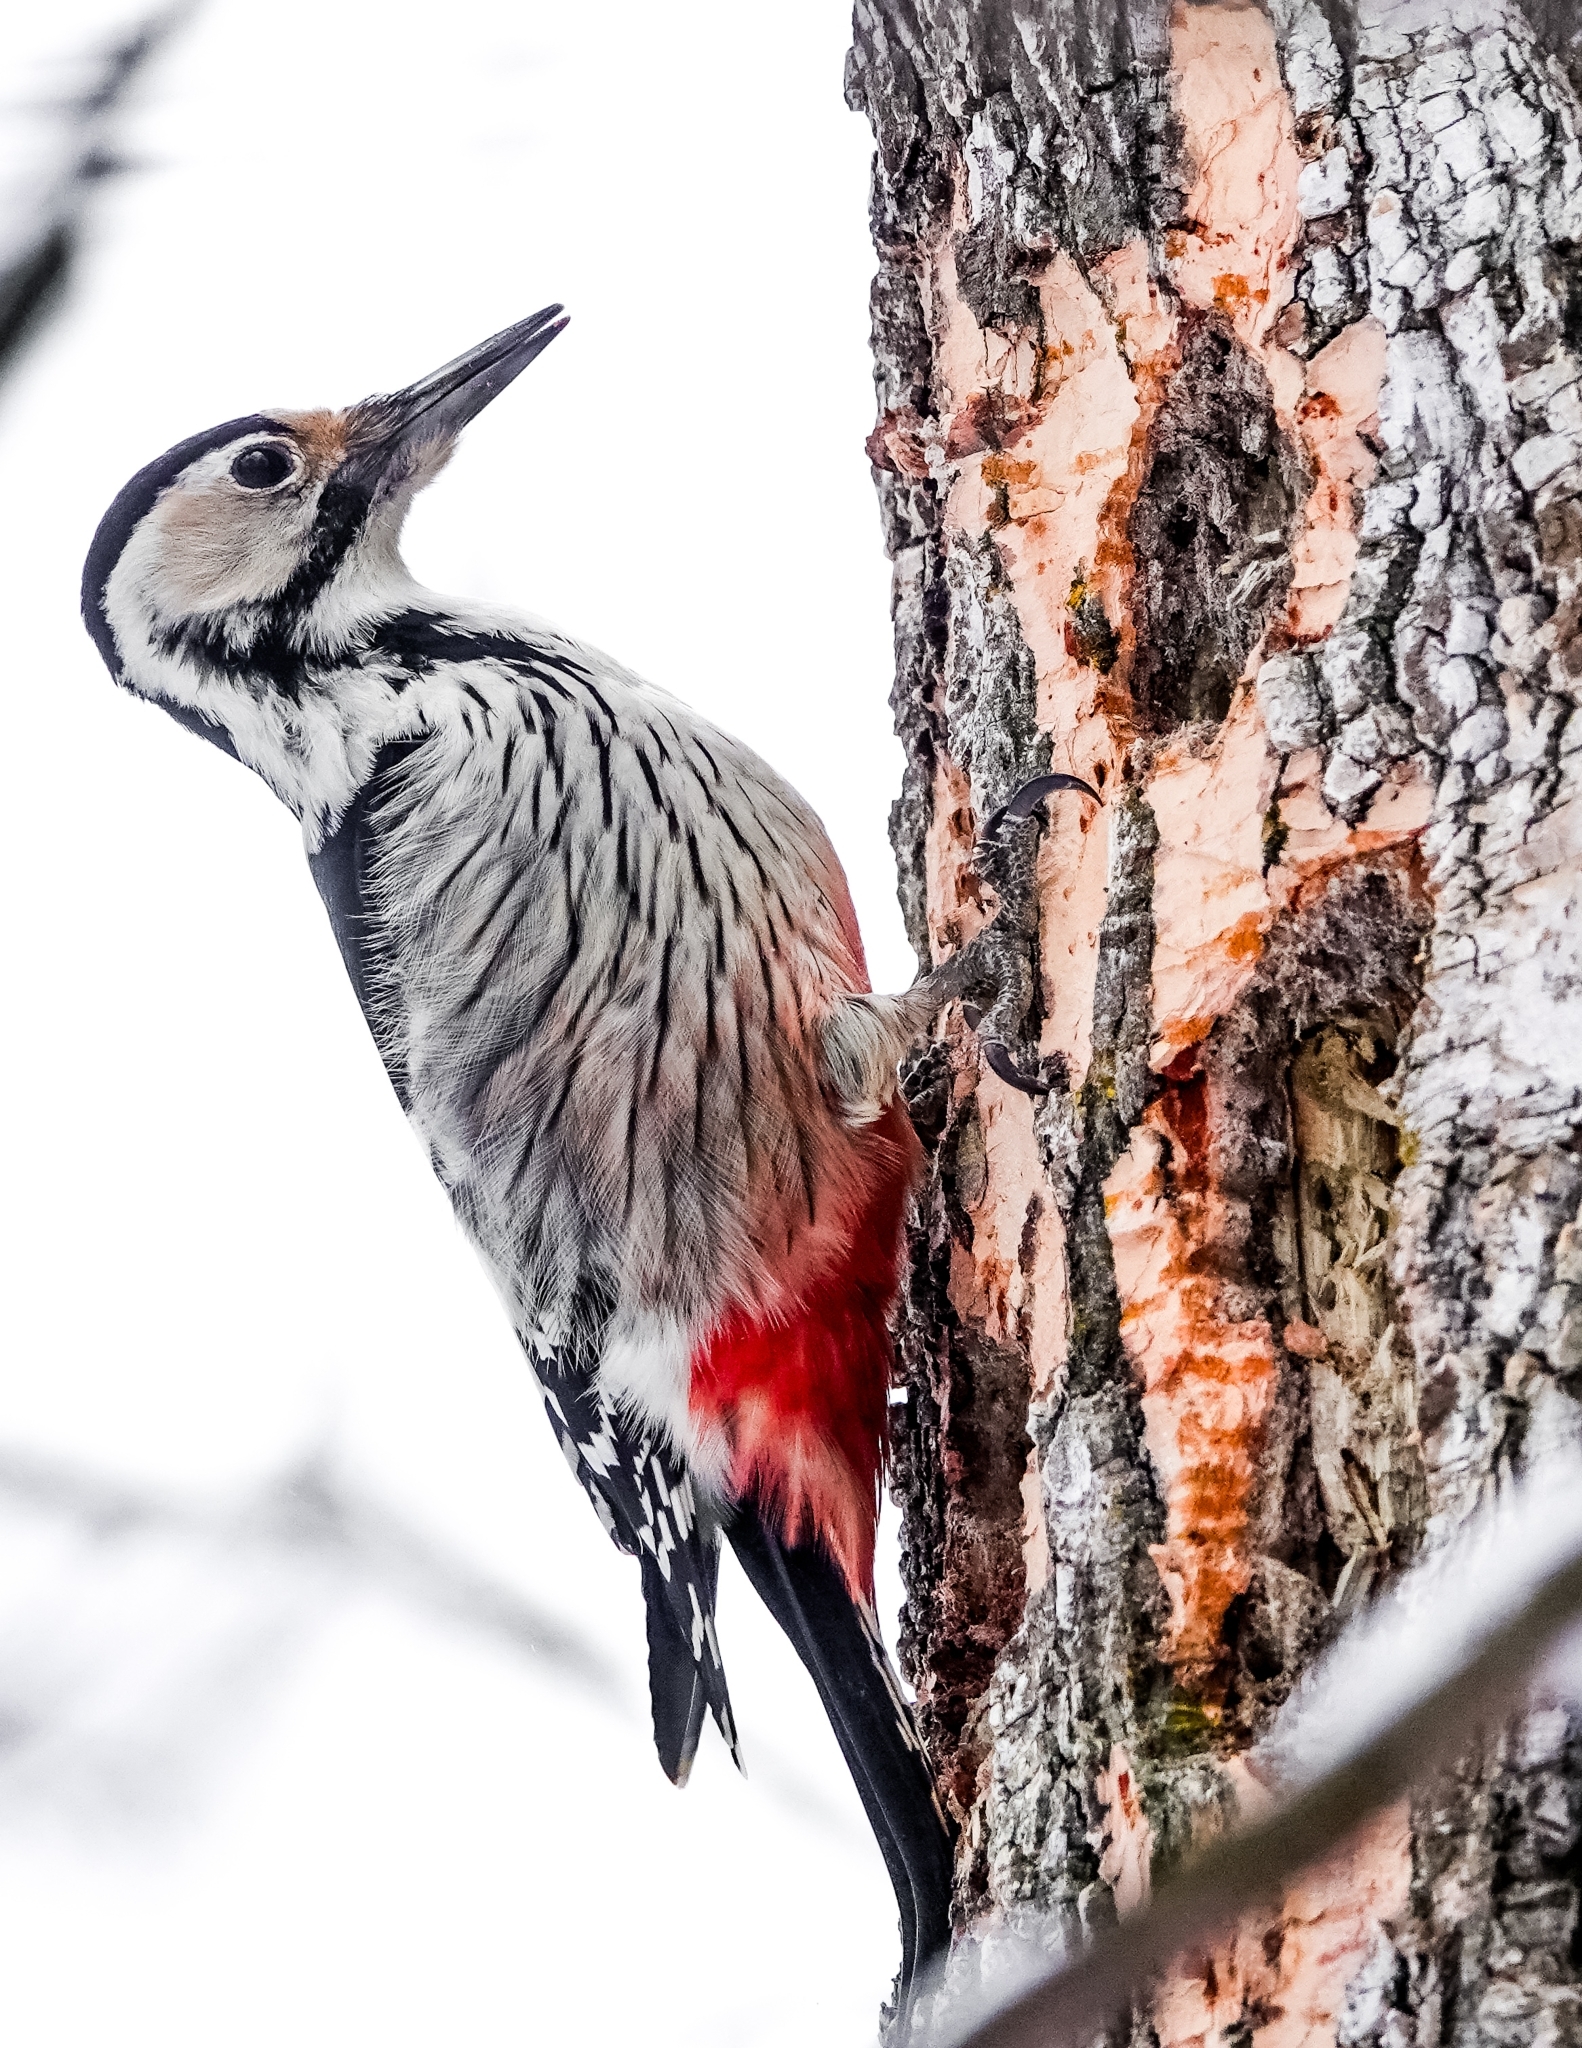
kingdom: Animalia
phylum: Chordata
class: Aves
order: Piciformes
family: Picidae
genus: Dendrocopos
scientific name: Dendrocopos leucotos
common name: White-backed woodpecker
